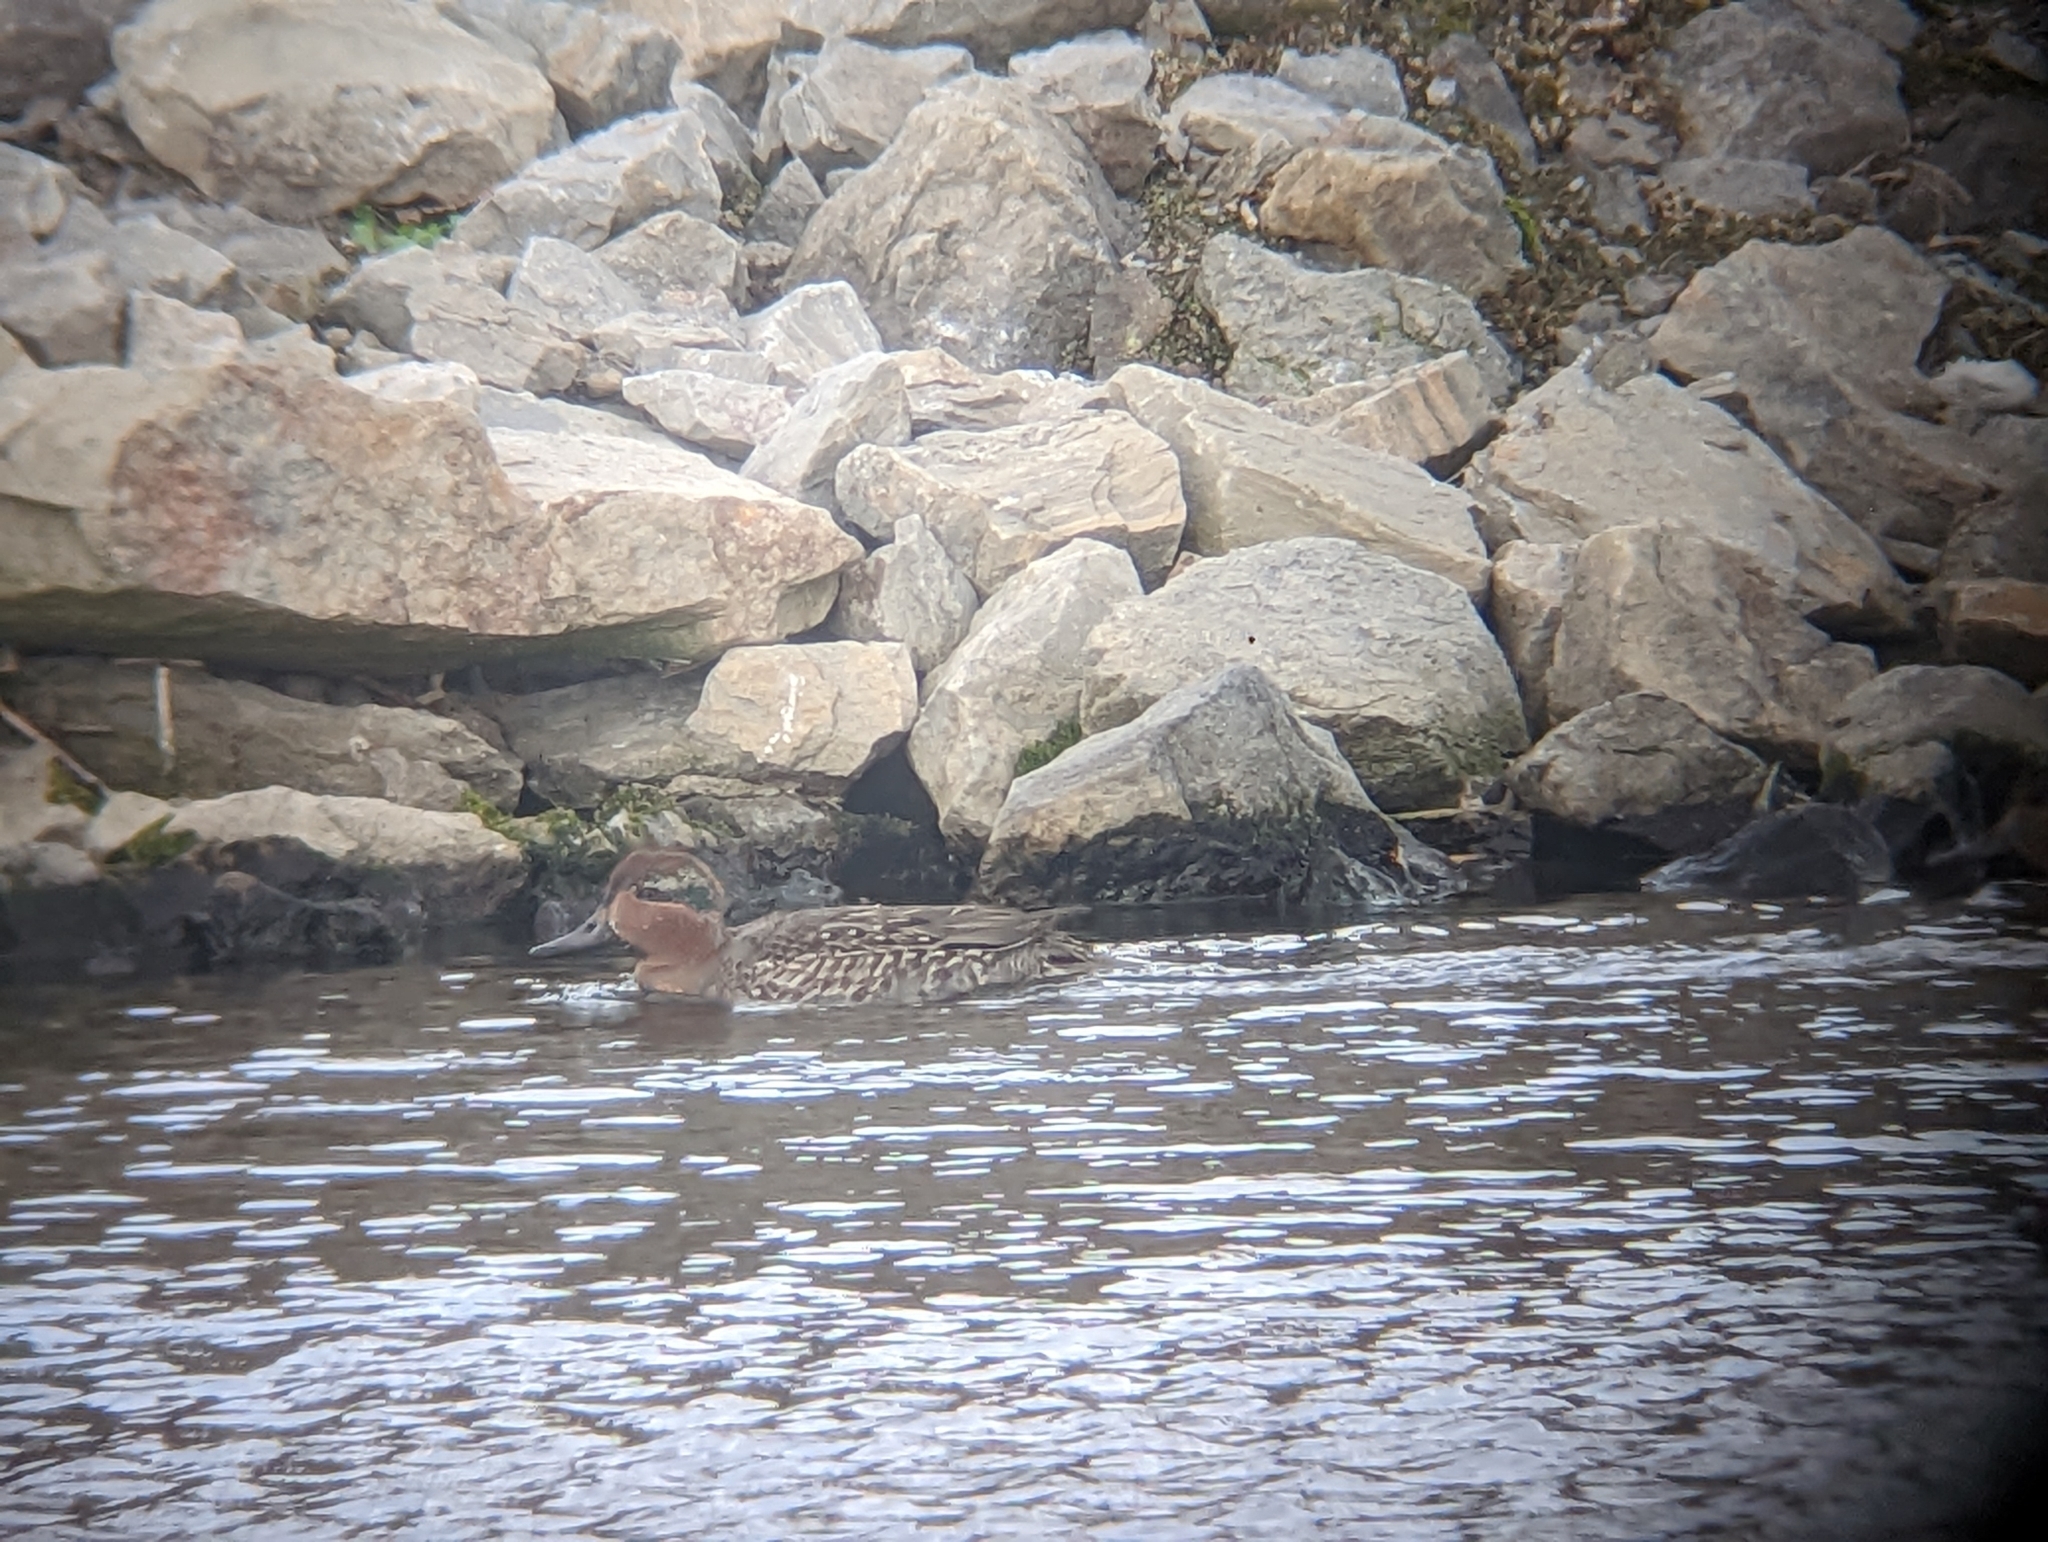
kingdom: Animalia
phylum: Chordata
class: Aves
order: Anseriformes
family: Anatidae
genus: Anas
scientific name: Anas crecca
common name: Eurasian teal
